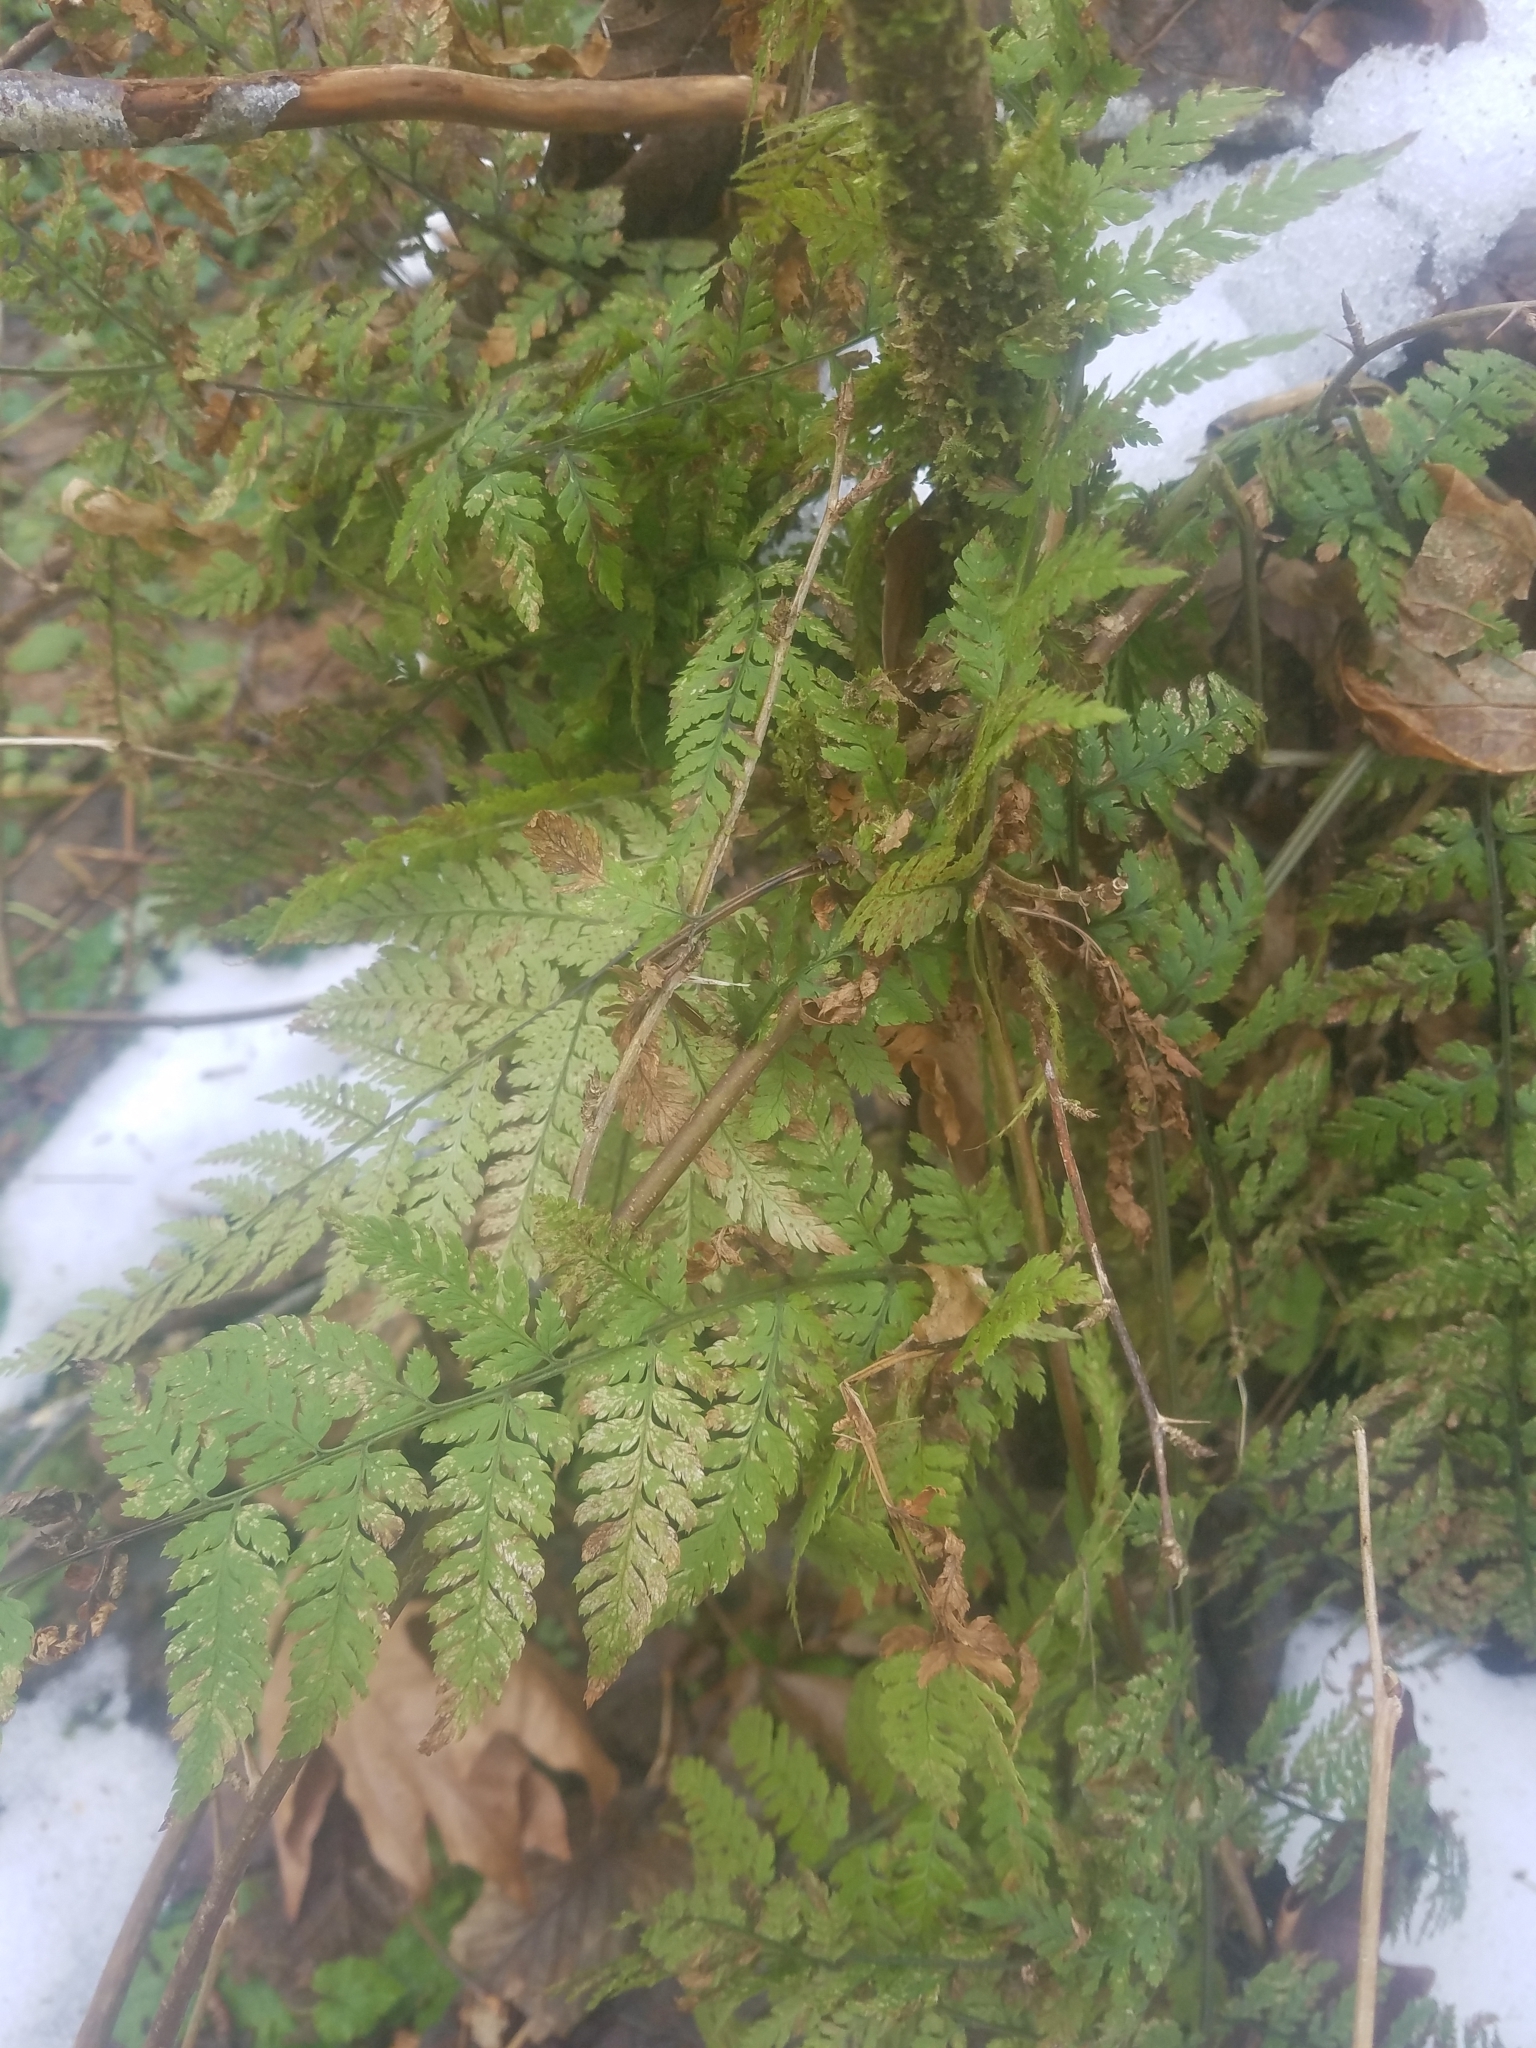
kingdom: Plantae
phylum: Tracheophyta
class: Polypodiopsida
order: Polypodiales
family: Dryopteridaceae
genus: Dryopteris
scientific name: Dryopteris expansa
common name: Northern buckler fern
